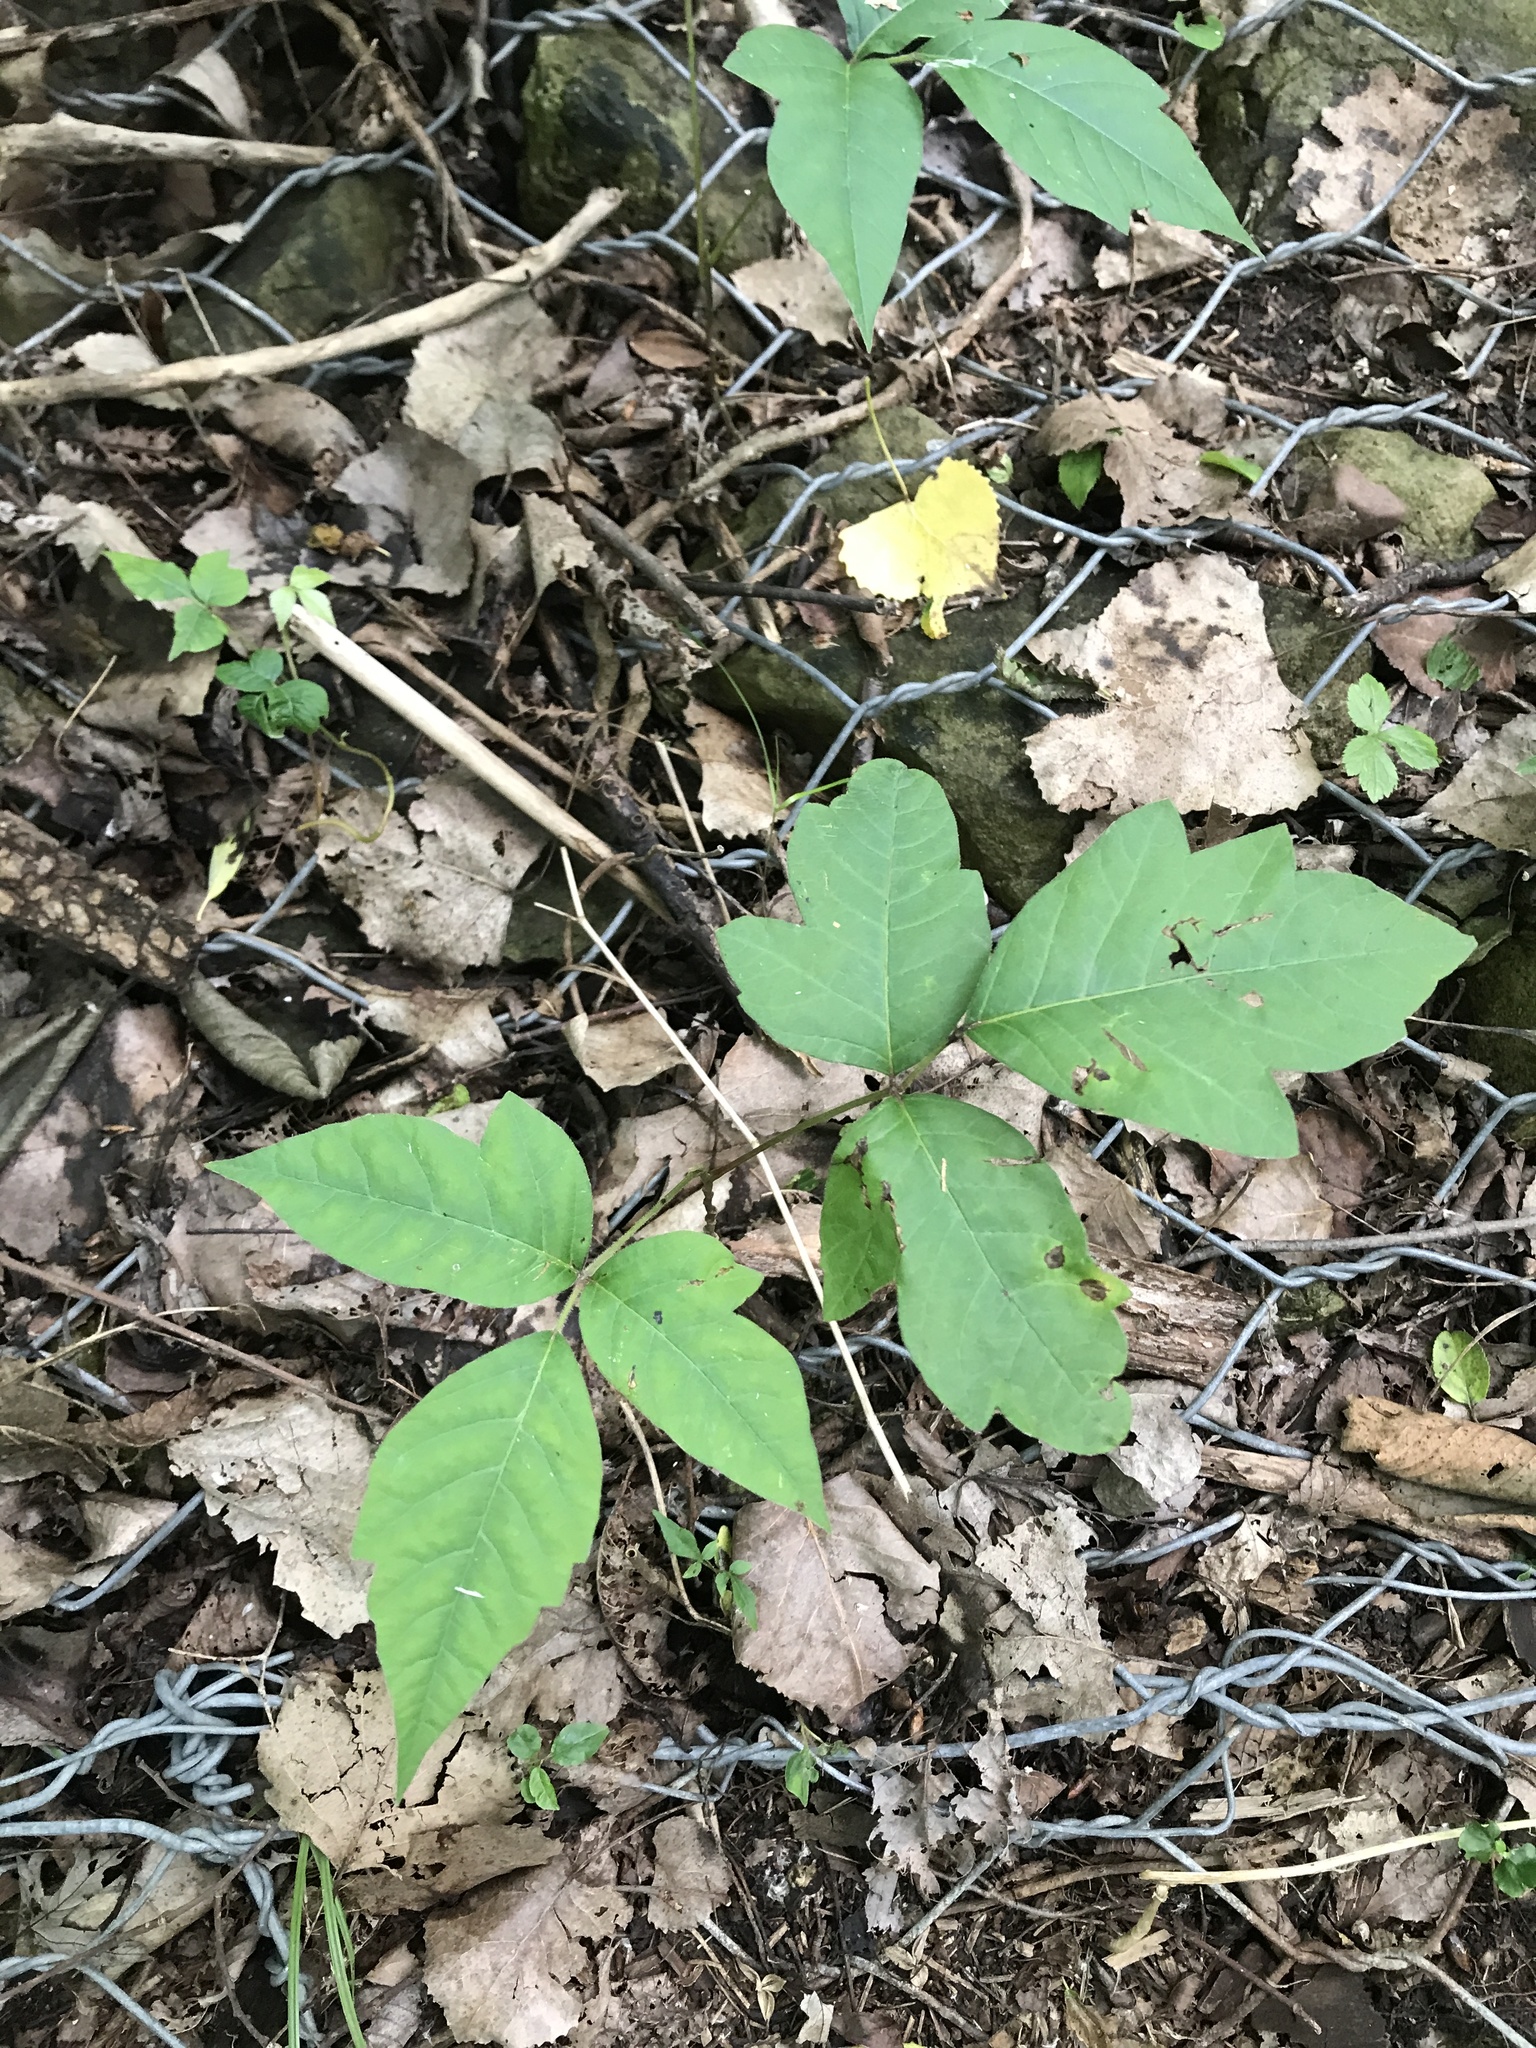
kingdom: Plantae
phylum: Tracheophyta
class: Magnoliopsida
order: Sapindales
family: Anacardiaceae
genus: Toxicodendron
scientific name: Toxicodendron radicans
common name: Poison ivy
